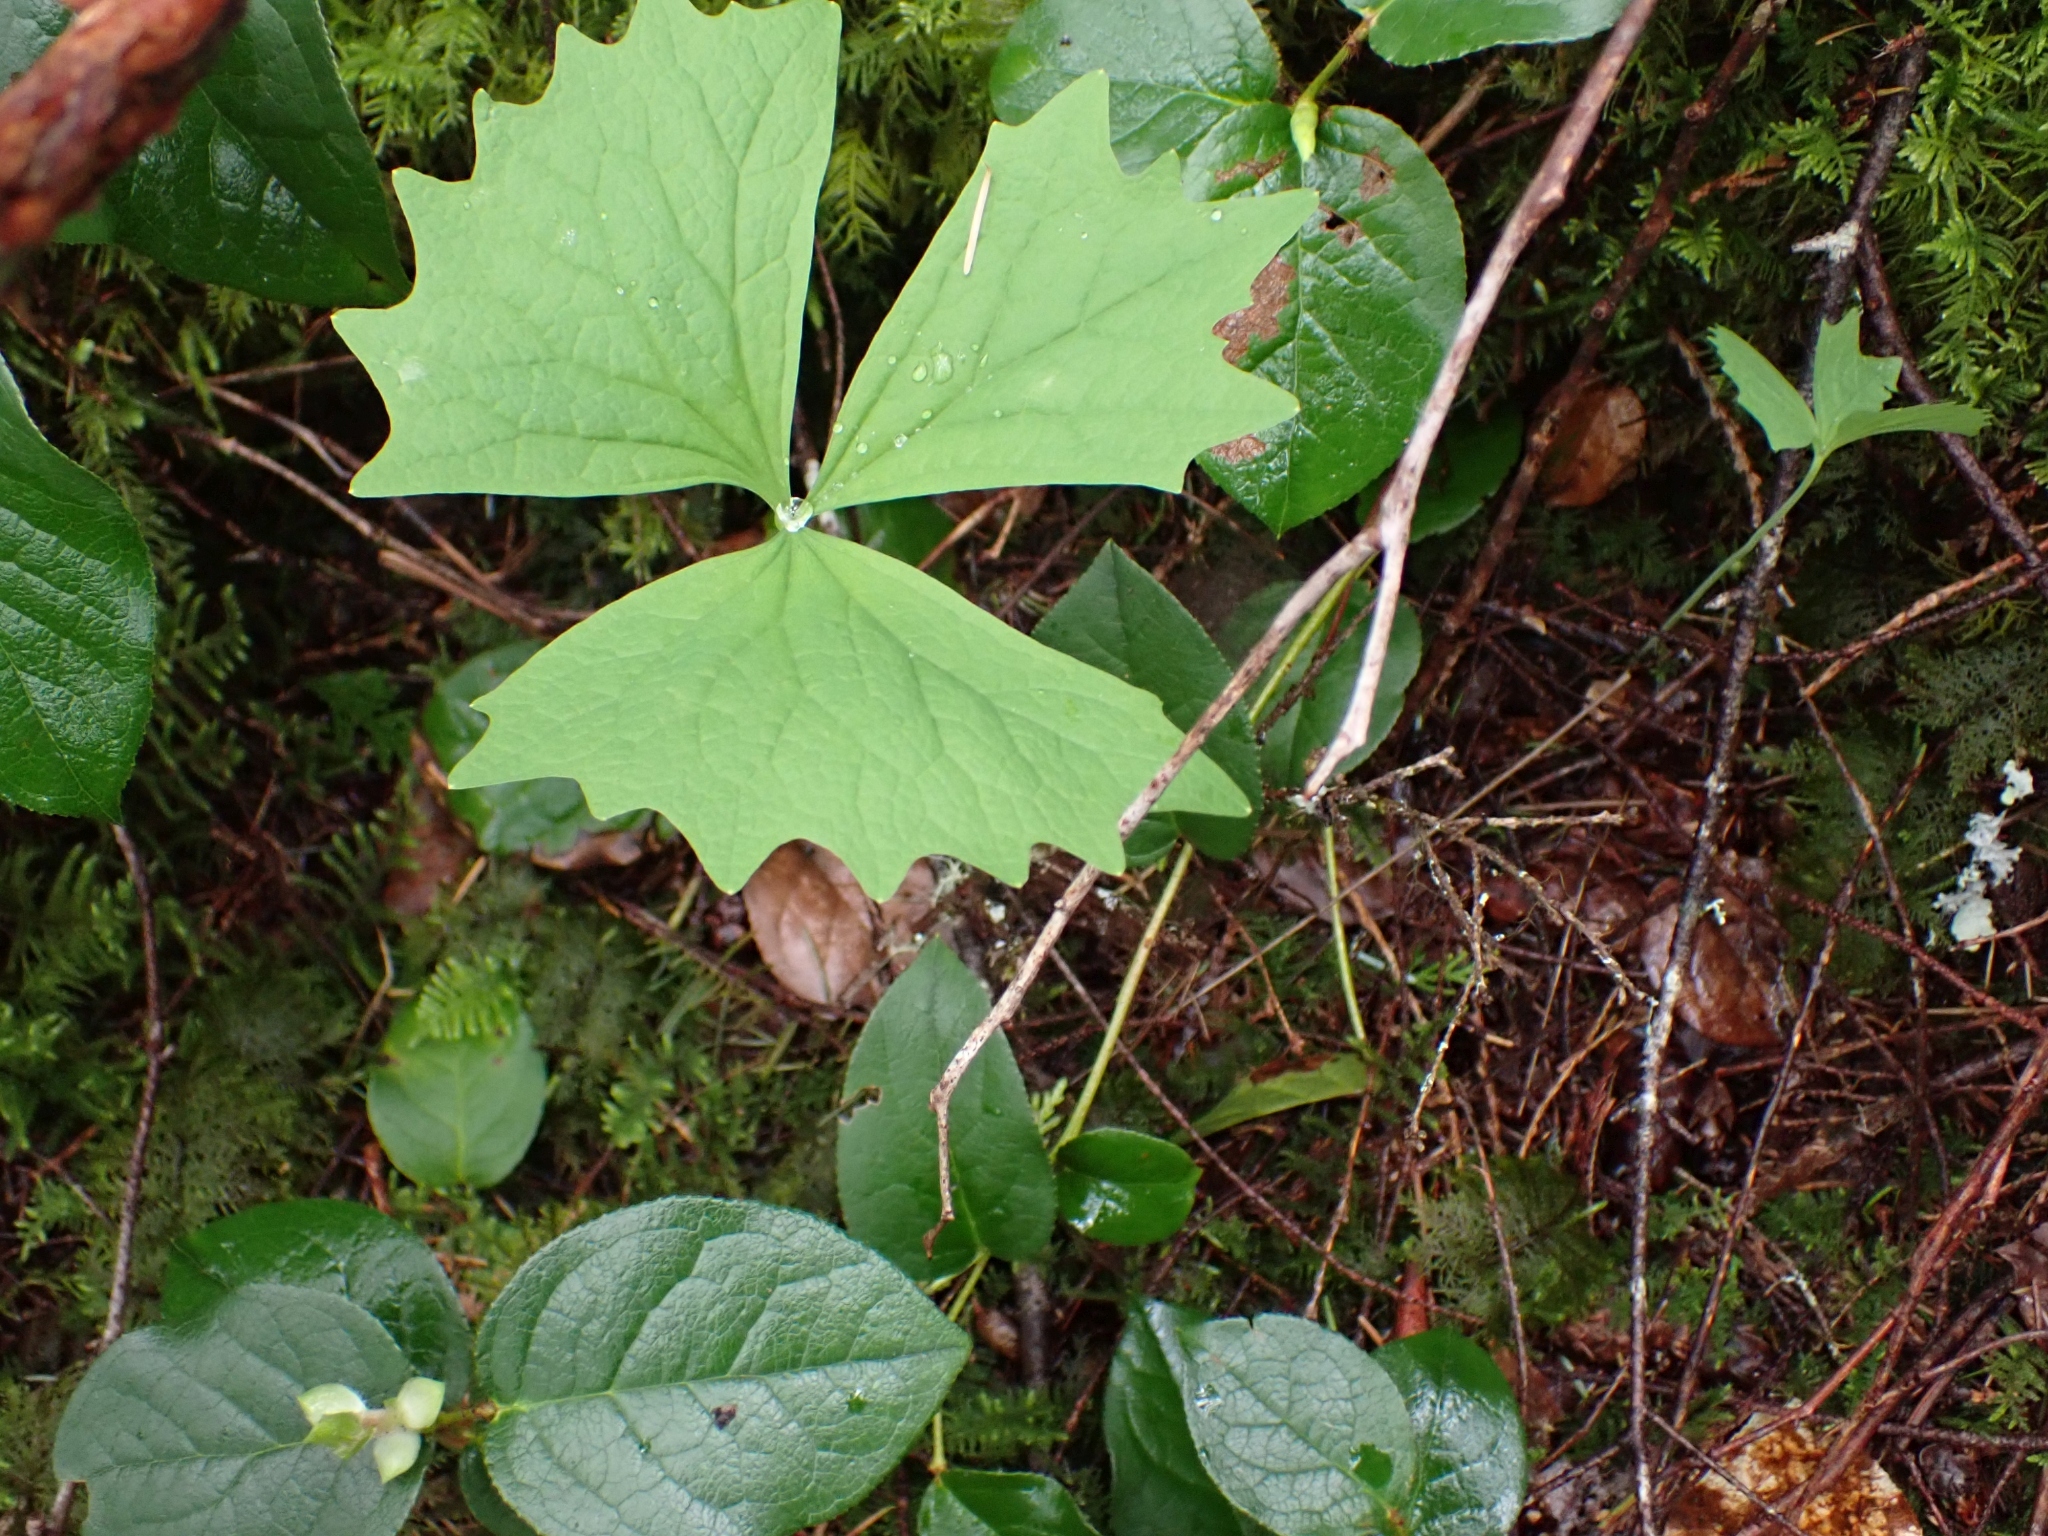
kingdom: Plantae
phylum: Tracheophyta
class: Magnoliopsida
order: Ranunculales
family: Berberidaceae
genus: Achlys
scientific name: Achlys triphylla
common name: Vanilla-leaf
